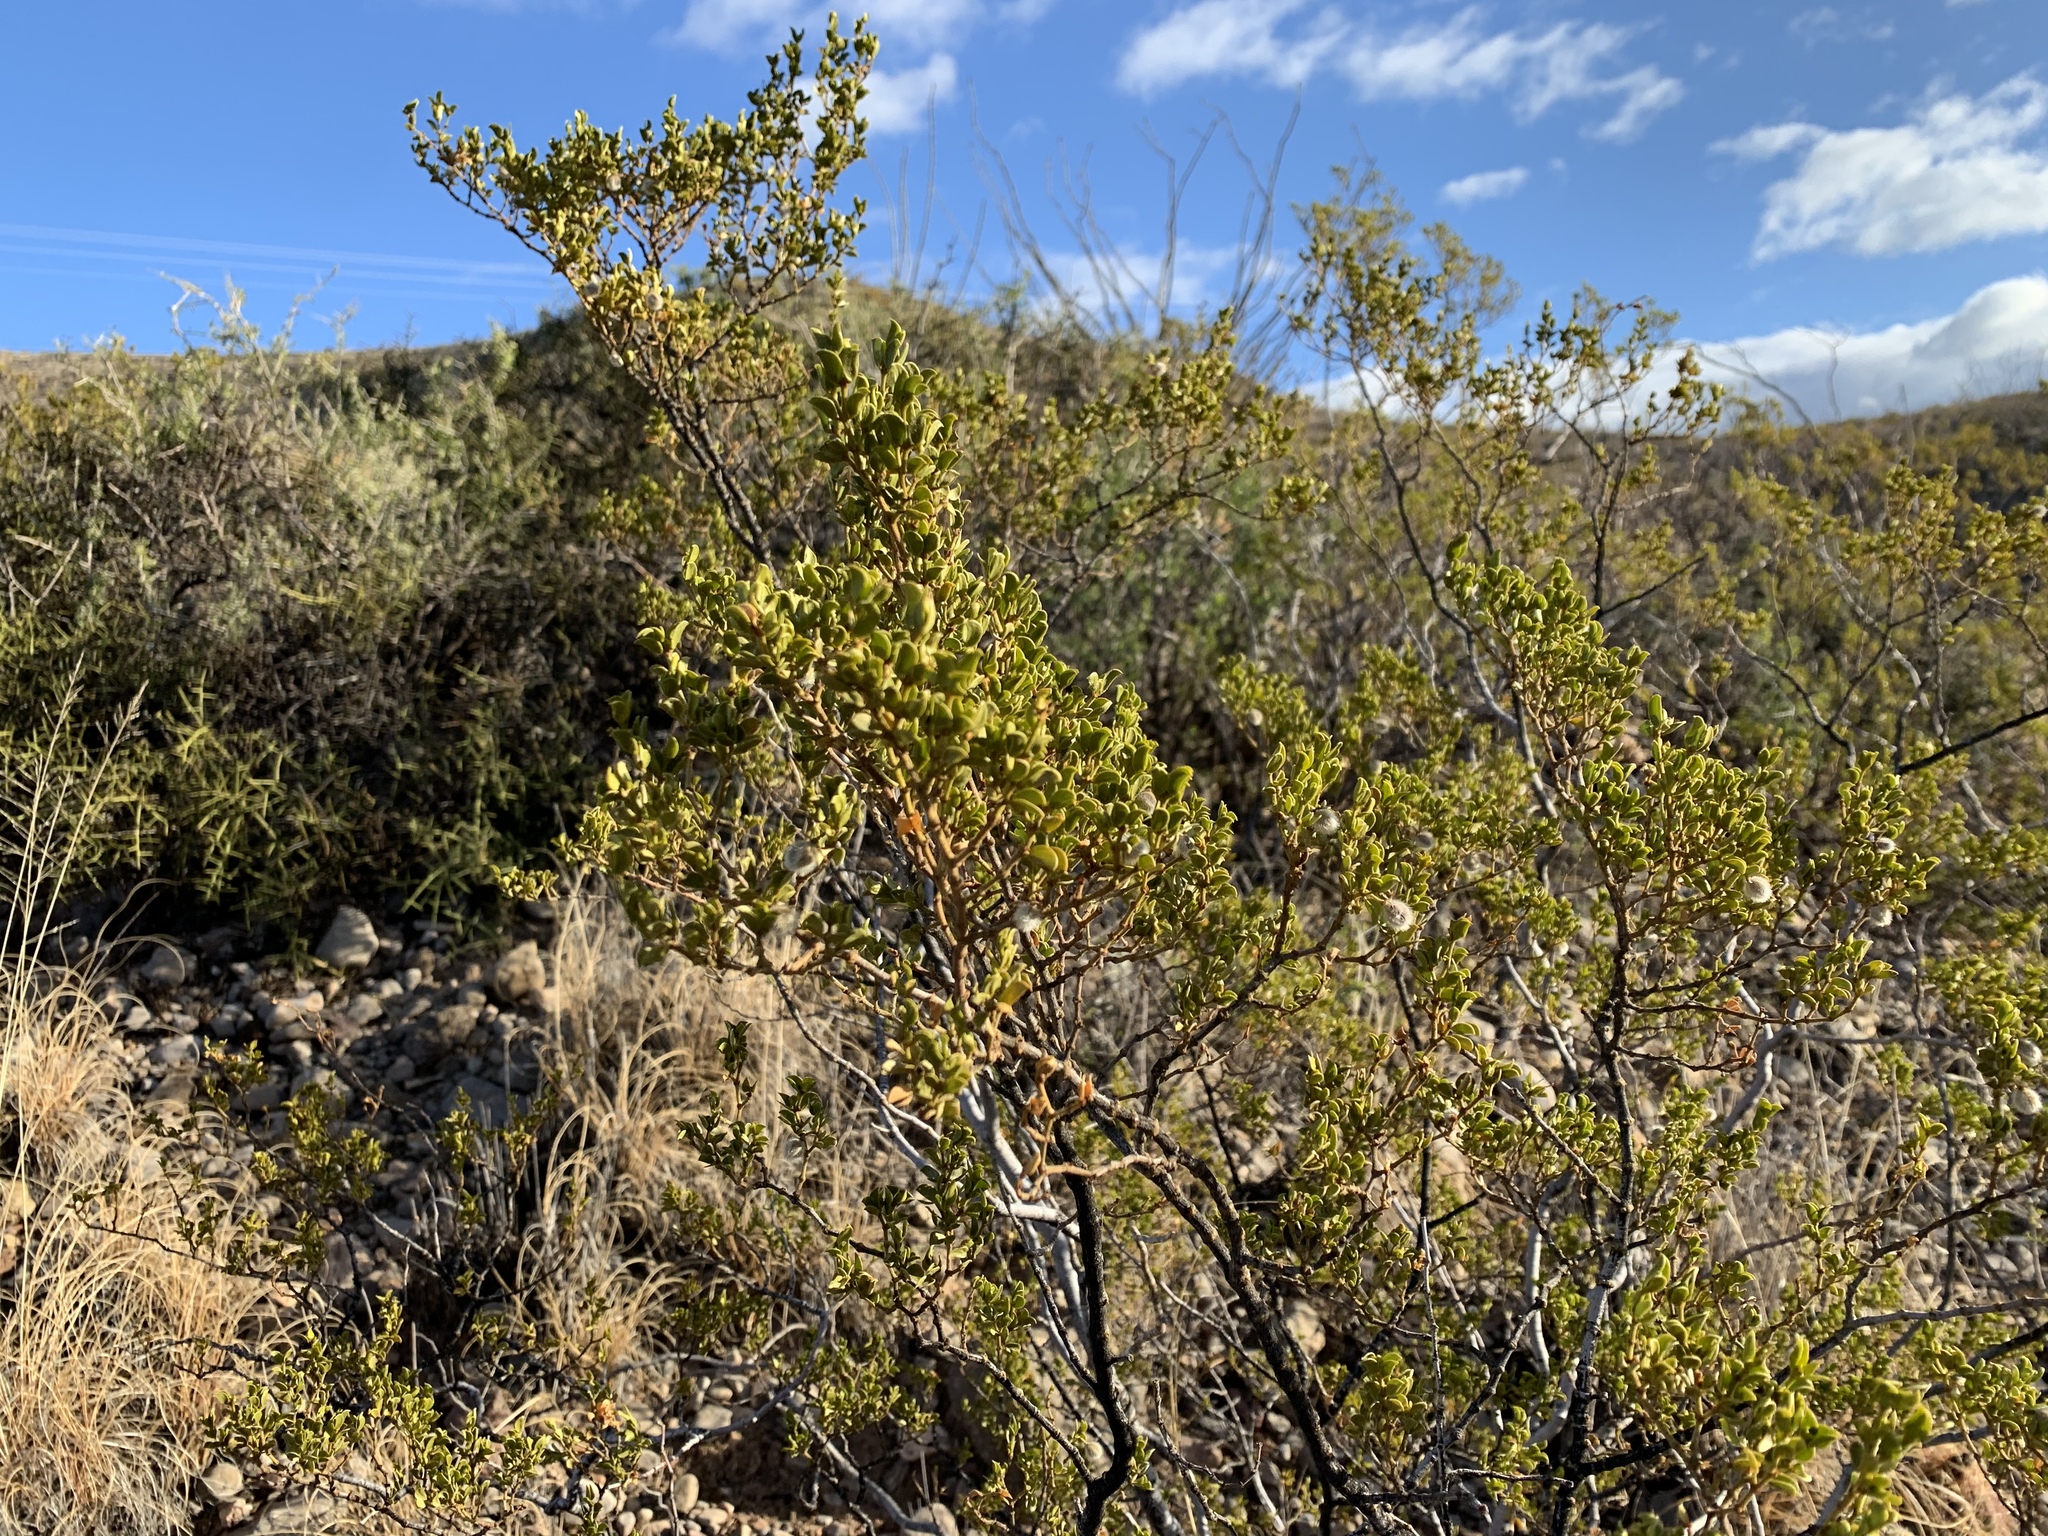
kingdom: Plantae
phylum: Tracheophyta
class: Magnoliopsida
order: Zygophyllales
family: Zygophyllaceae
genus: Larrea
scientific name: Larrea tridentata
